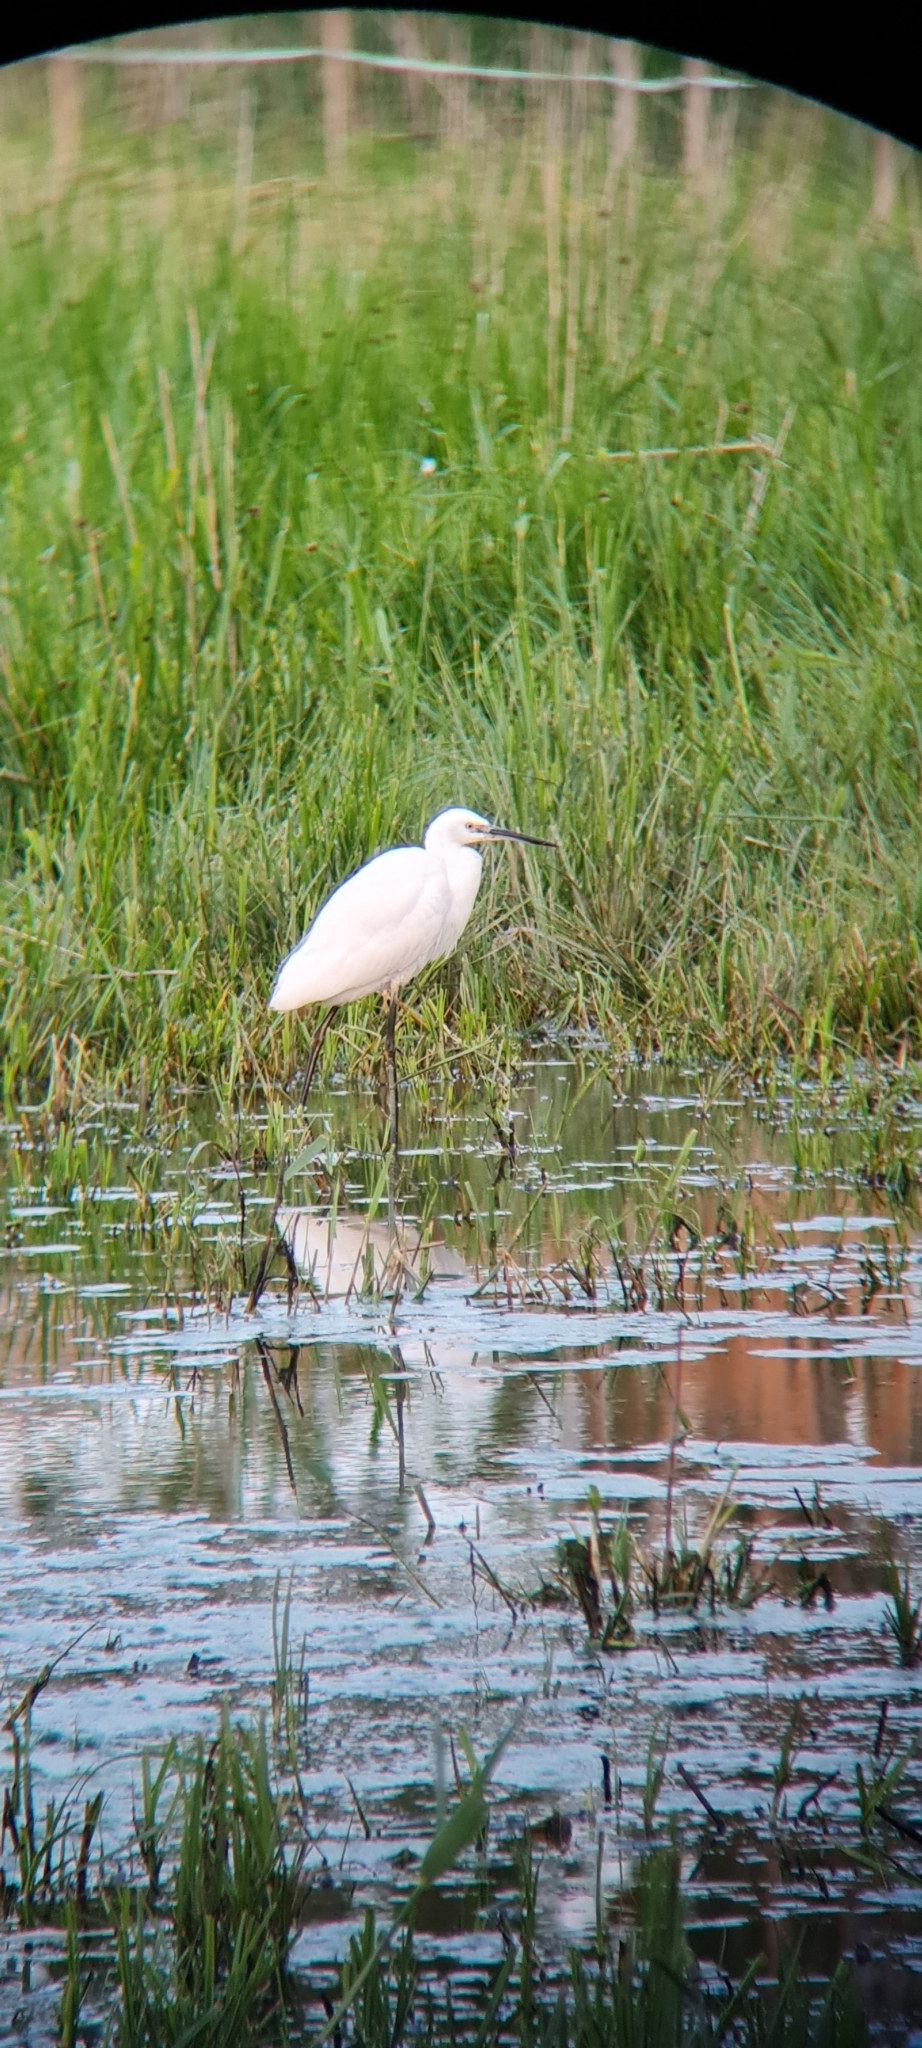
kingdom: Animalia
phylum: Chordata
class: Aves
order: Pelecaniformes
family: Ardeidae
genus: Egretta
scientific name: Egretta garzetta
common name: Little egret
